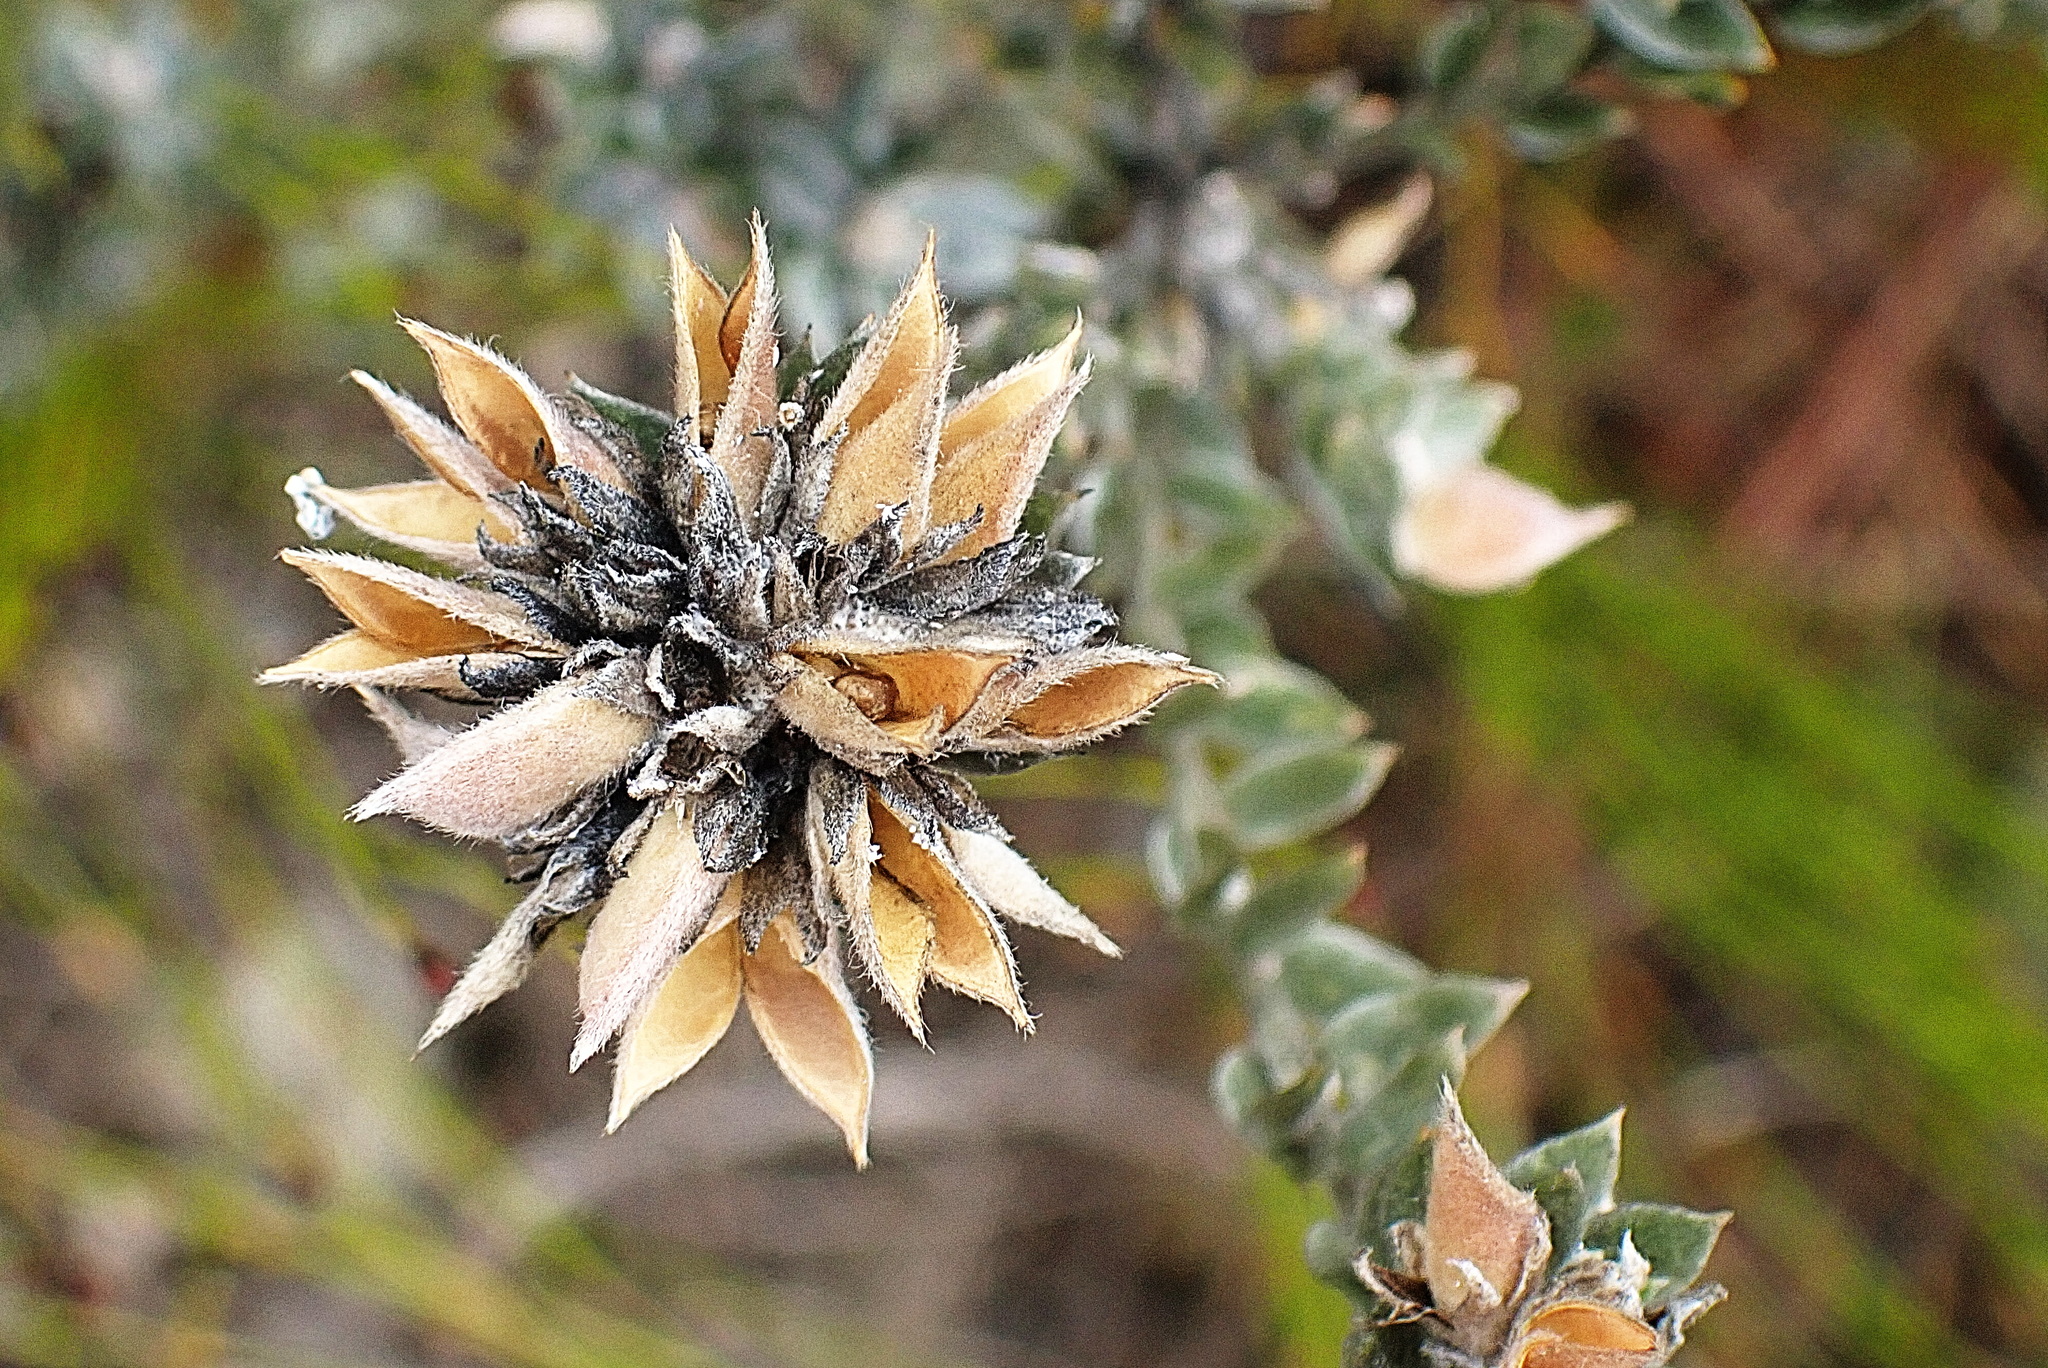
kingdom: Plantae
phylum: Tracheophyta
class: Magnoliopsida
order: Asterales
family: Asteraceae
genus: Metalasia
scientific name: Metalasia pungens
